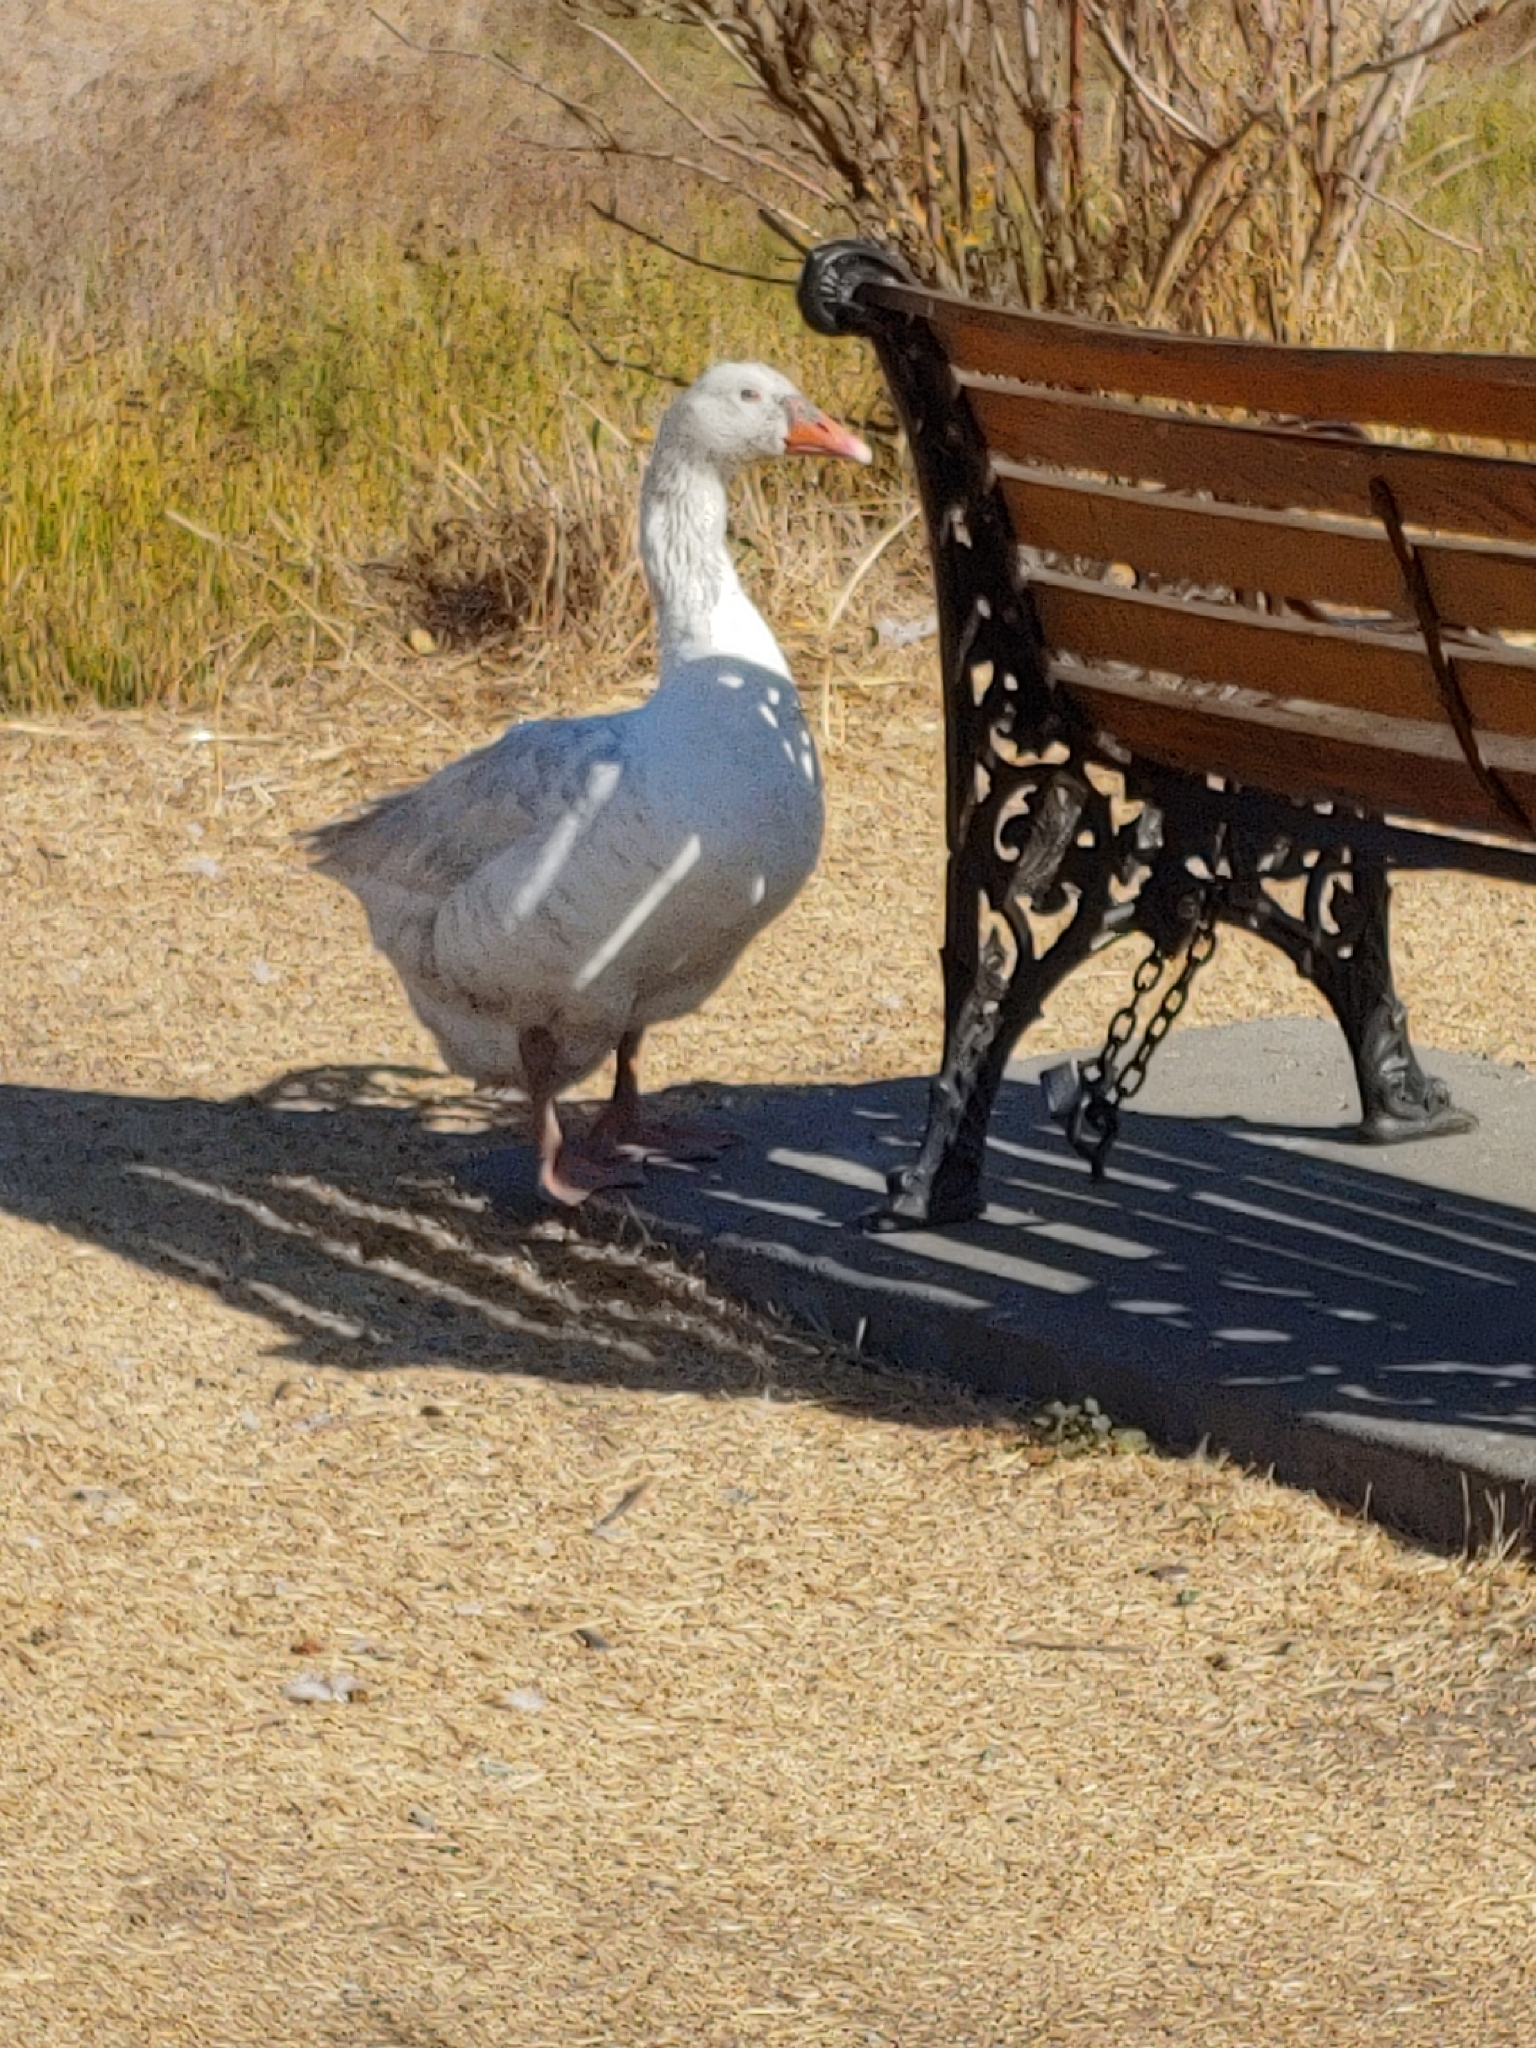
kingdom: Animalia
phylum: Chordata
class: Aves
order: Anseriformes
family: Anatidae
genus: Anser
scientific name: Anser anser
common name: Greylag goose
